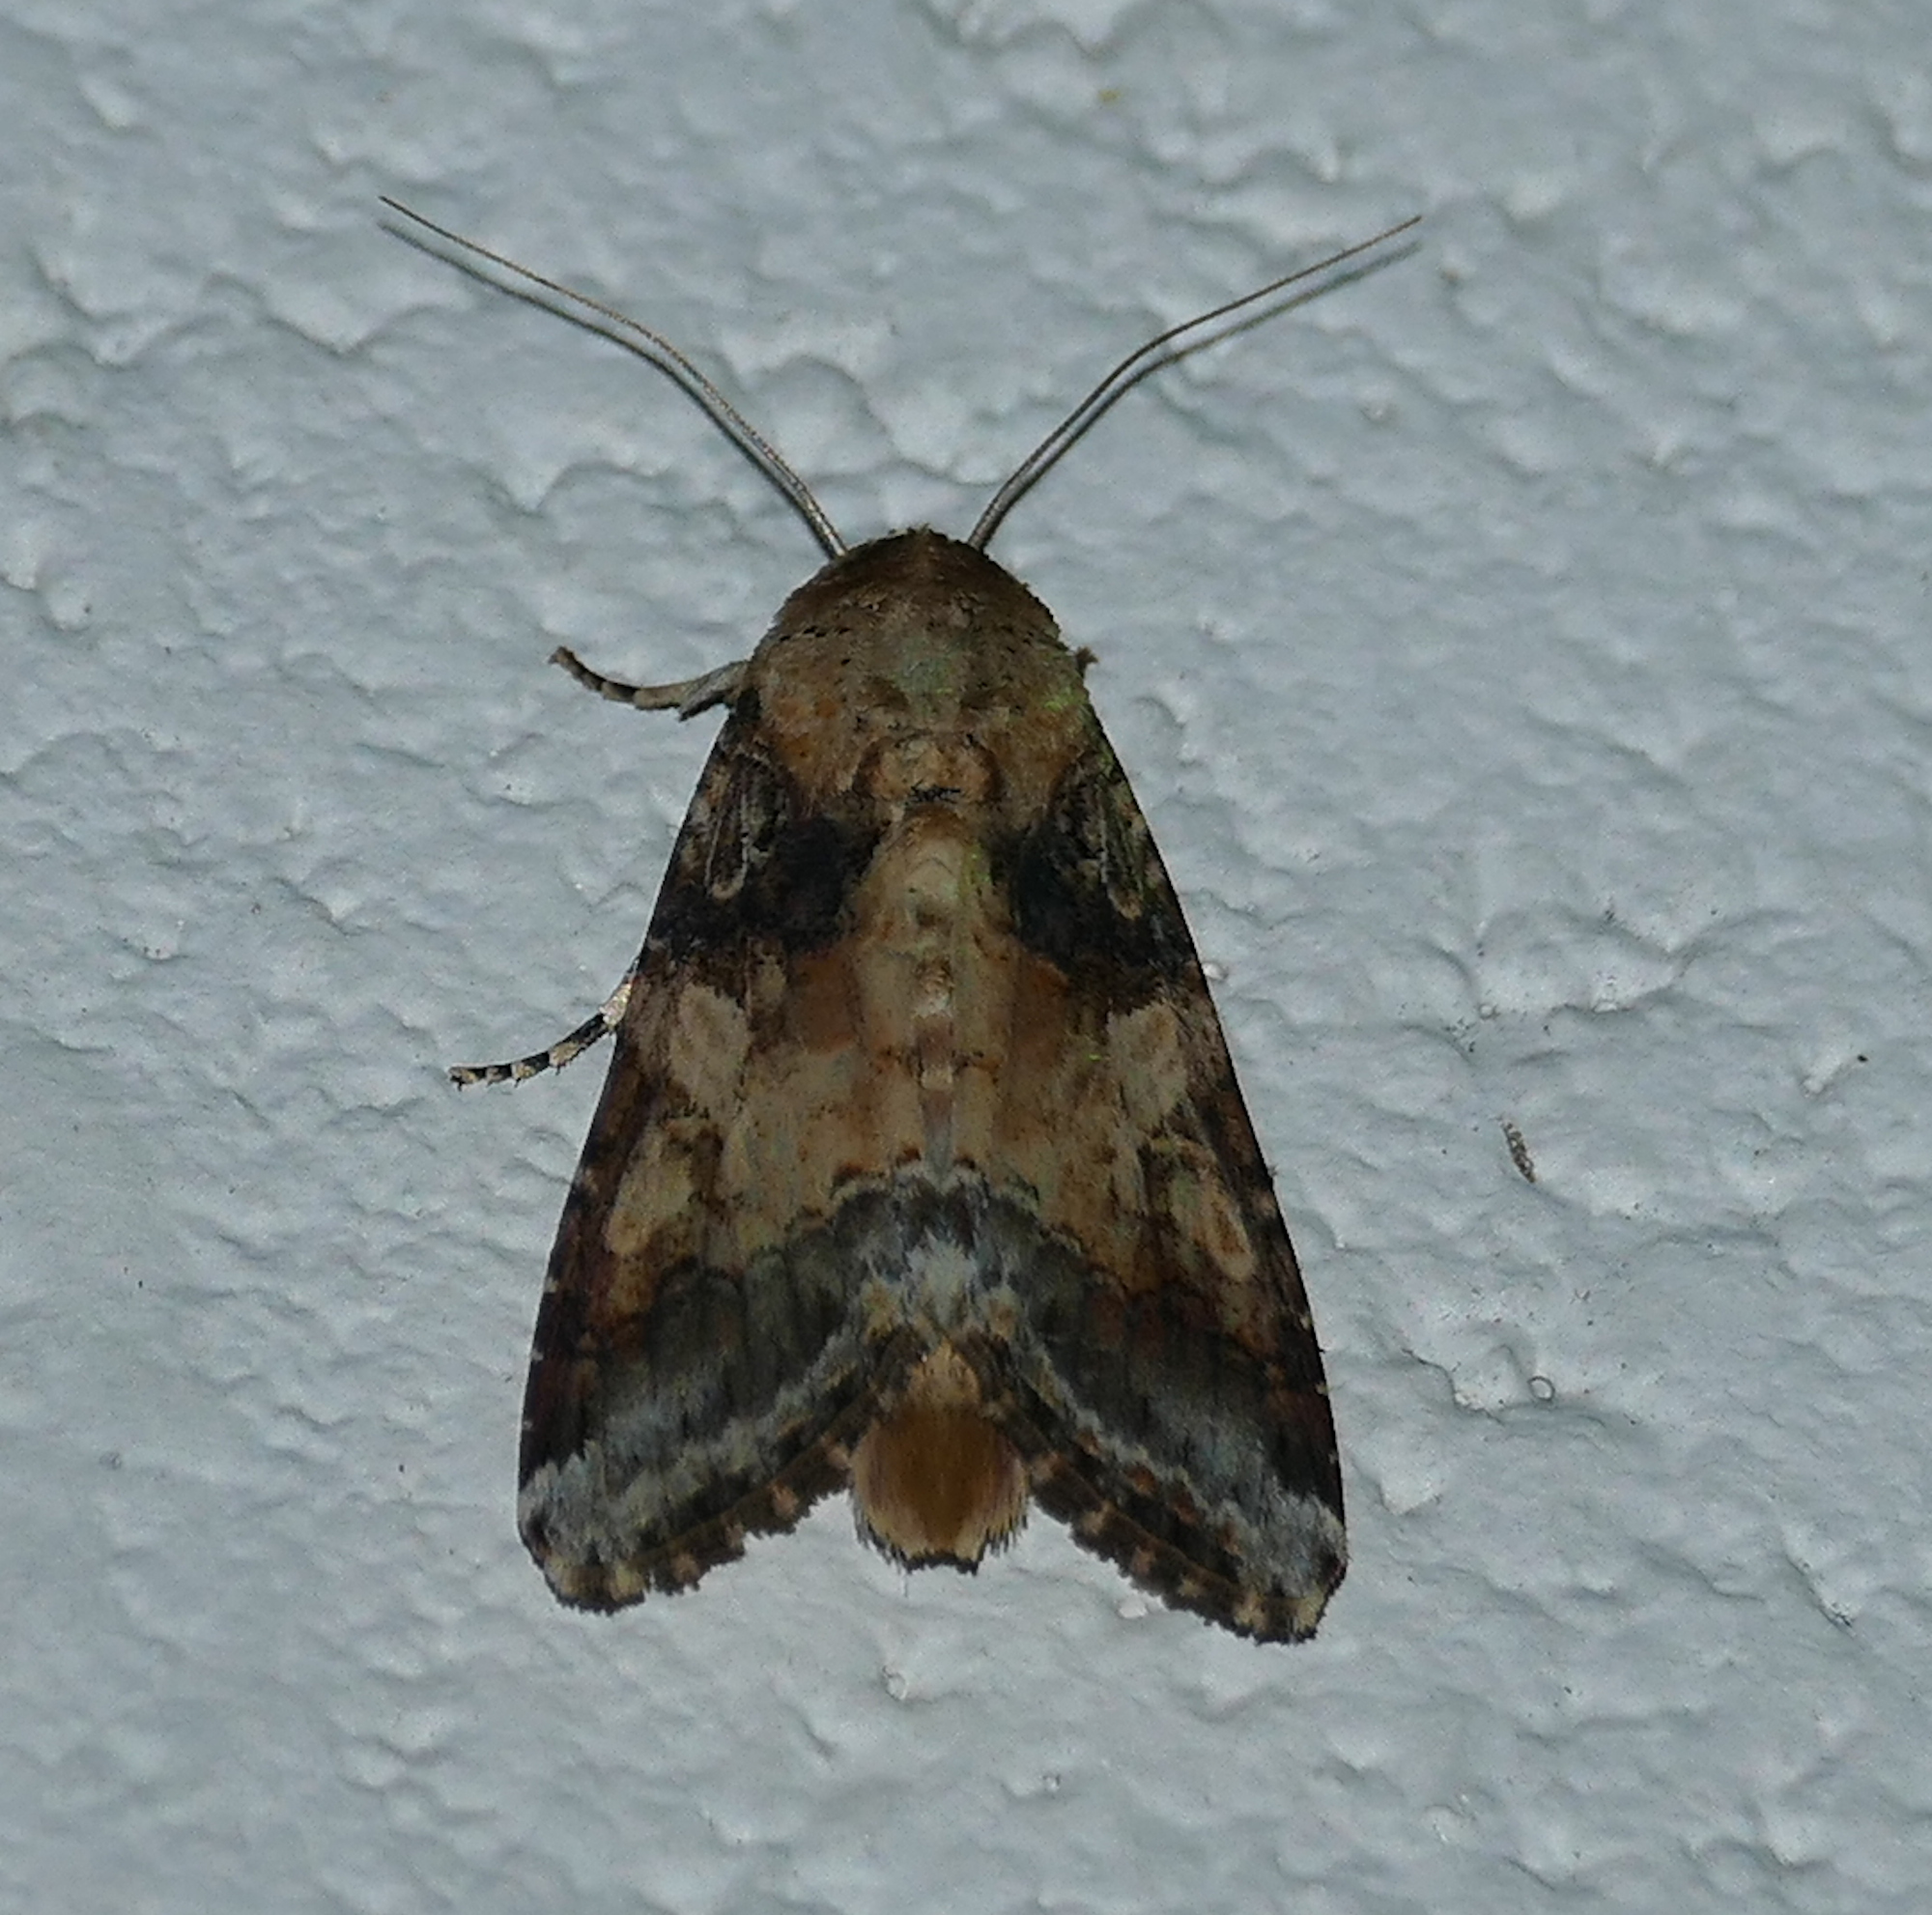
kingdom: Animalia
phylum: Arthropoda
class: Insecta
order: Lepidoptera
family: Noctuidae
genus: Spodoptera
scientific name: Spodoptera latifascia
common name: Velvet armyworm moth
